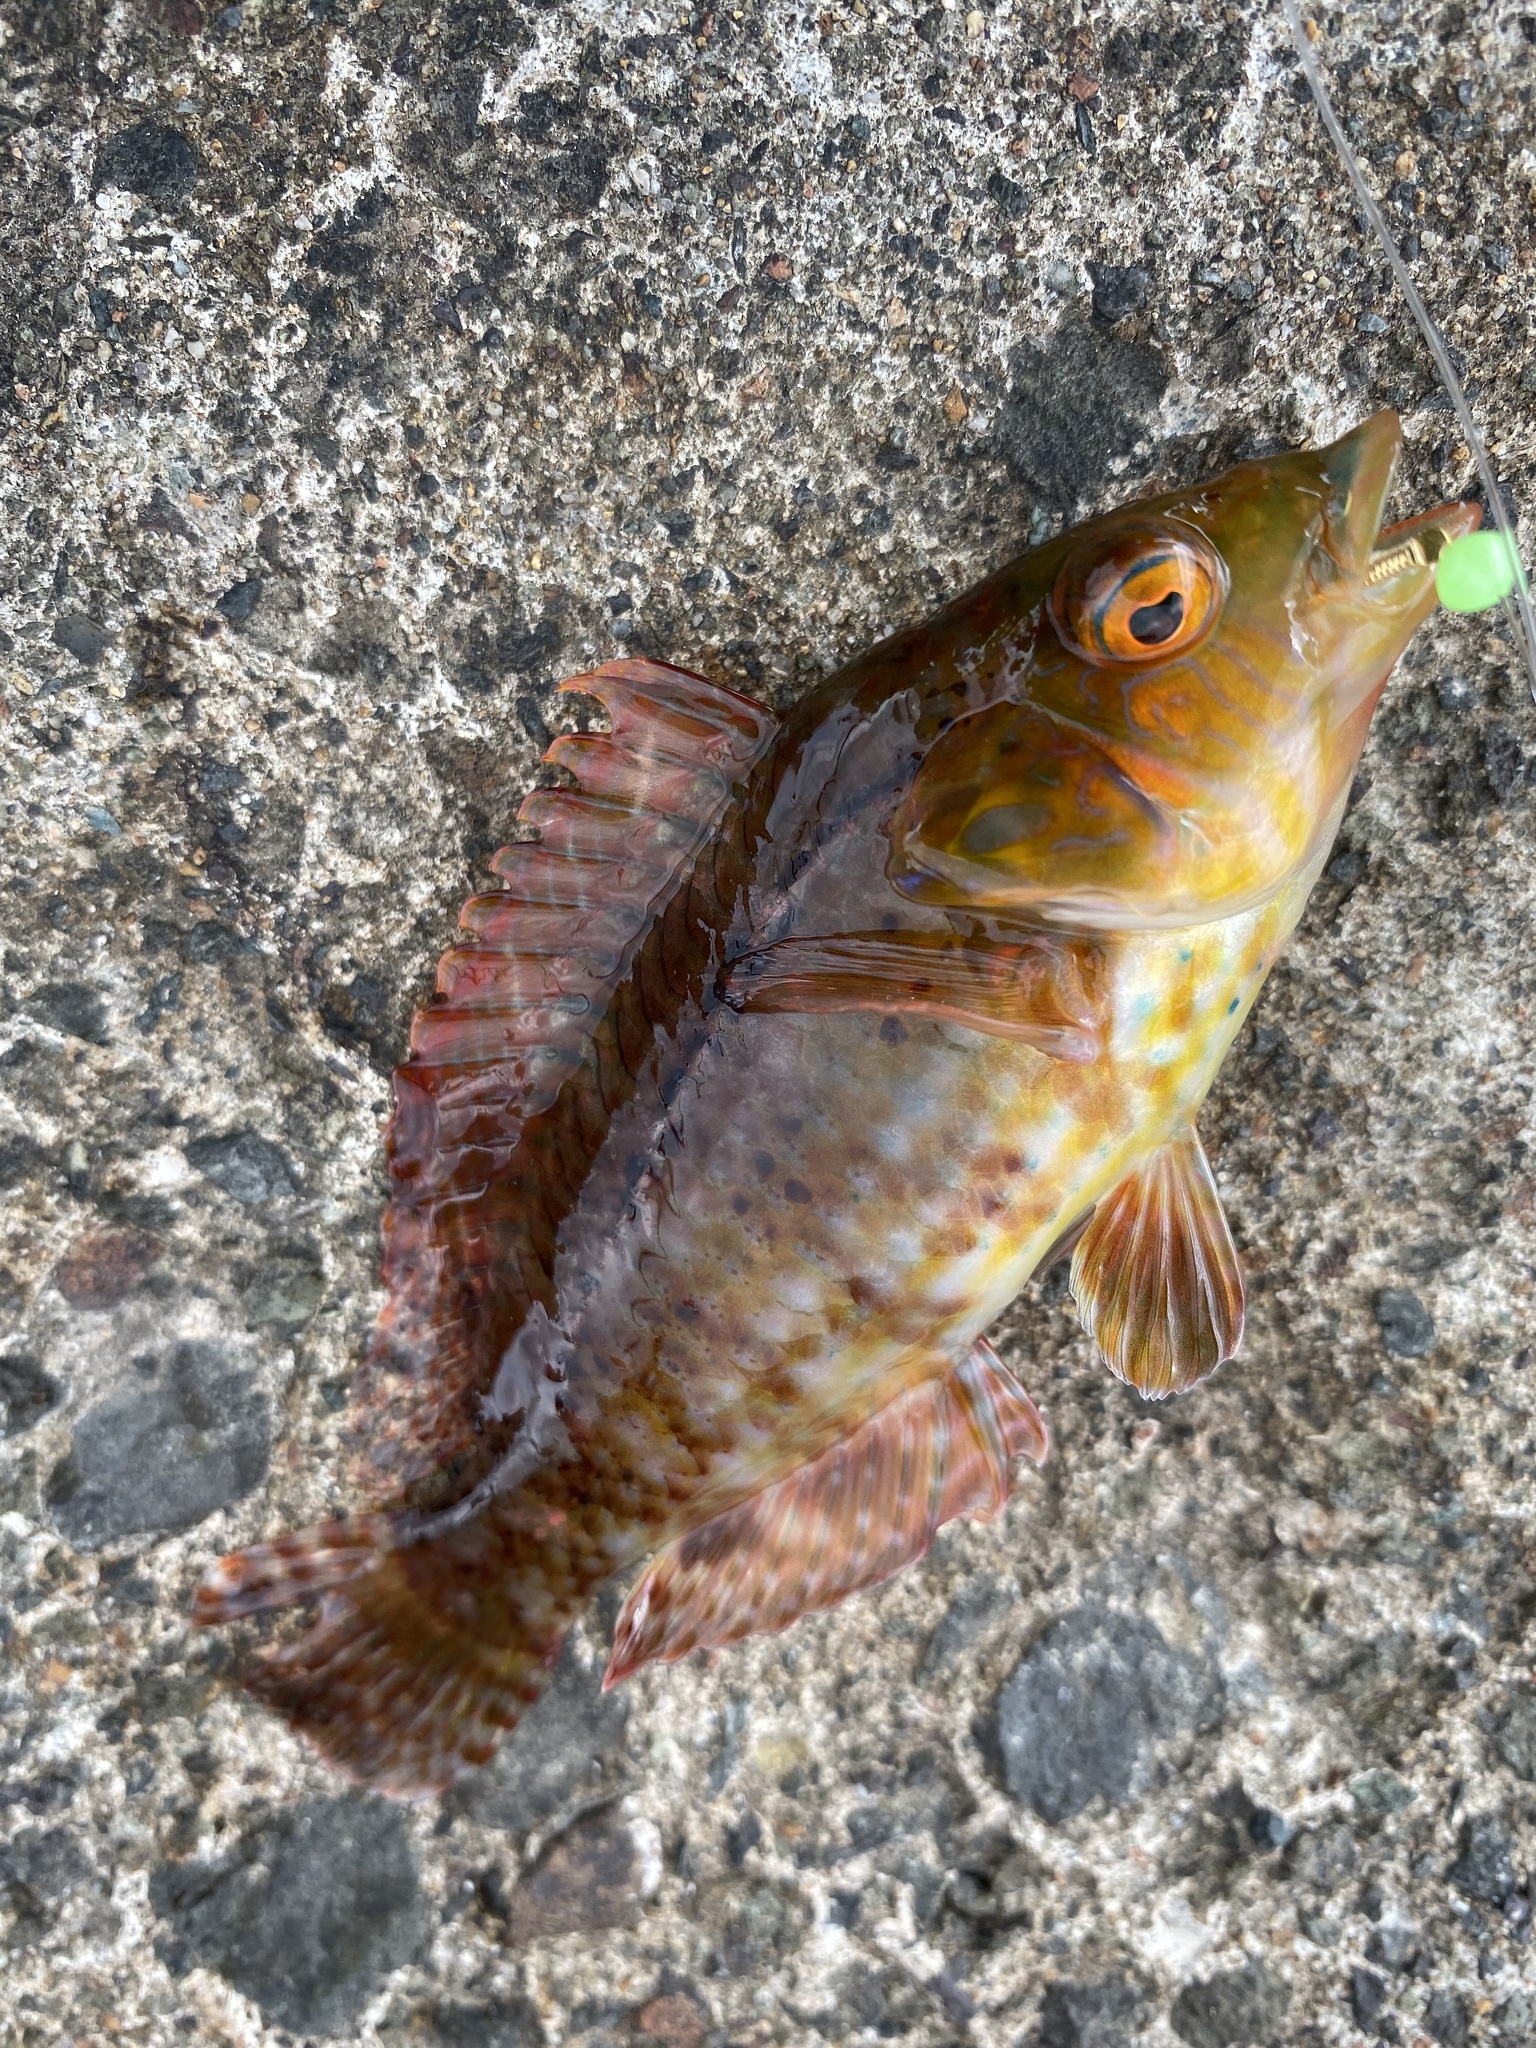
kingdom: Animalia
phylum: Chordata
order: Perciformes
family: Labridae
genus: Pteragogus
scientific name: Pteragogus aurigarius
